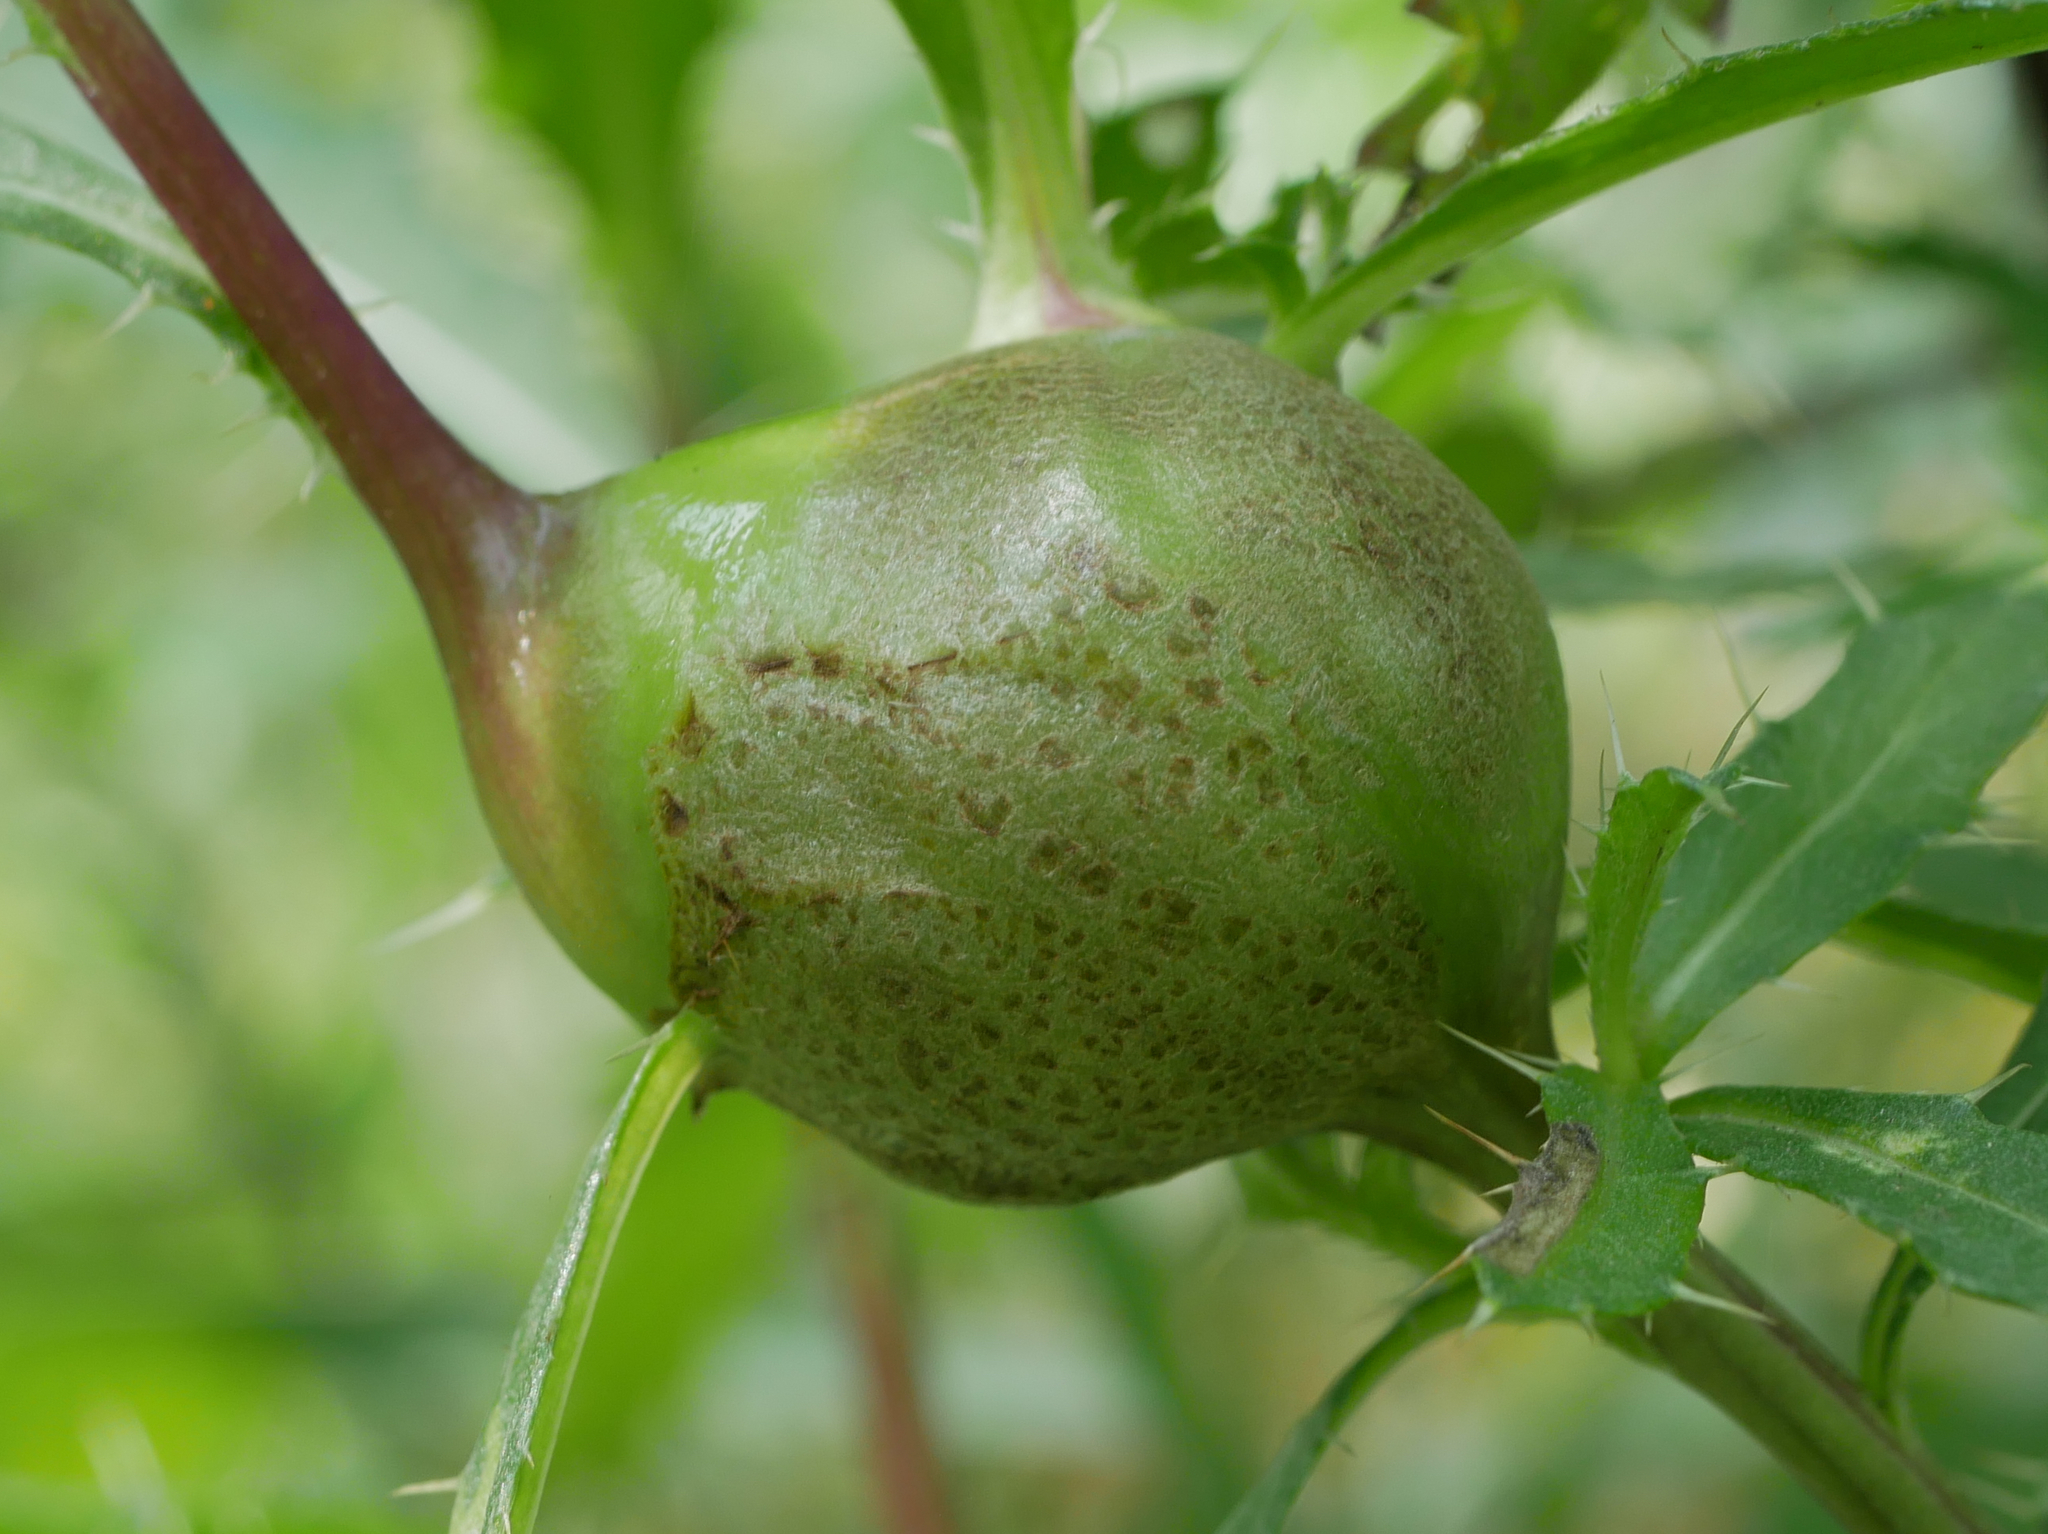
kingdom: Animalia
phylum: Arthropoda
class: Insecta
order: Diptera
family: Tephritidae
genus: Urophora
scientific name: Urophora cardui
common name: Fruit fly
